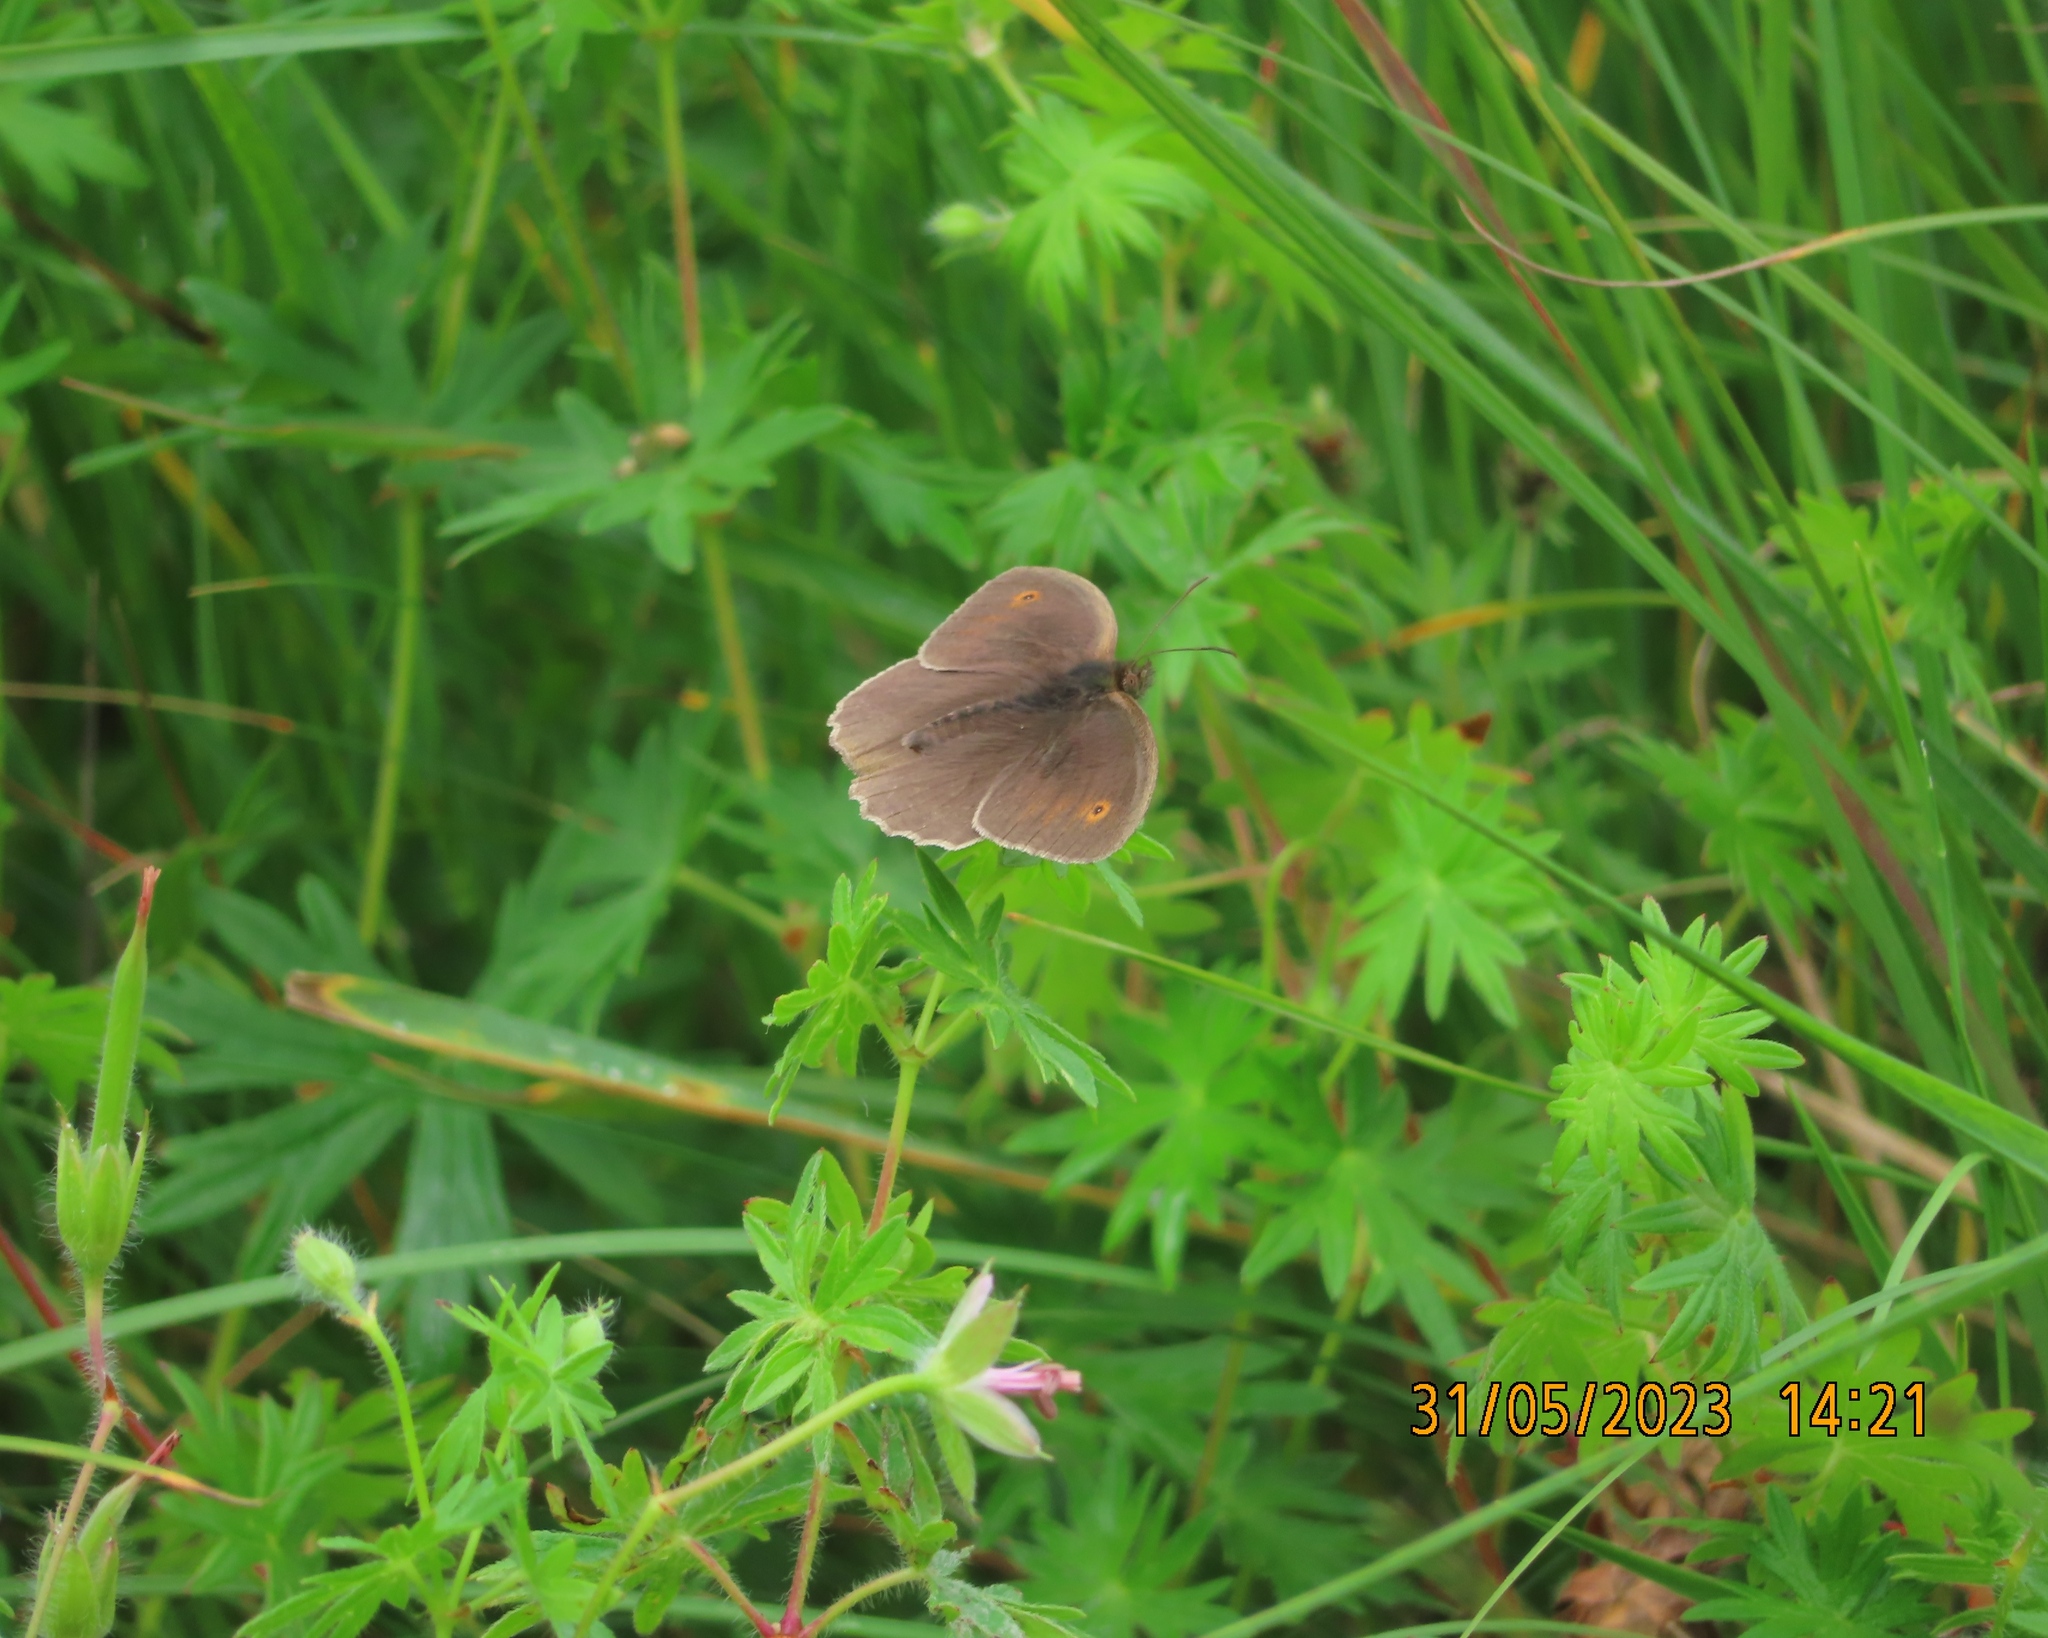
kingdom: Animalia
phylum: Arthropoda
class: Insecta
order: Lepidoptera
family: Nymphalidae
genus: Maniola
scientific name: Maniola jurtina
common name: Meadow brown
